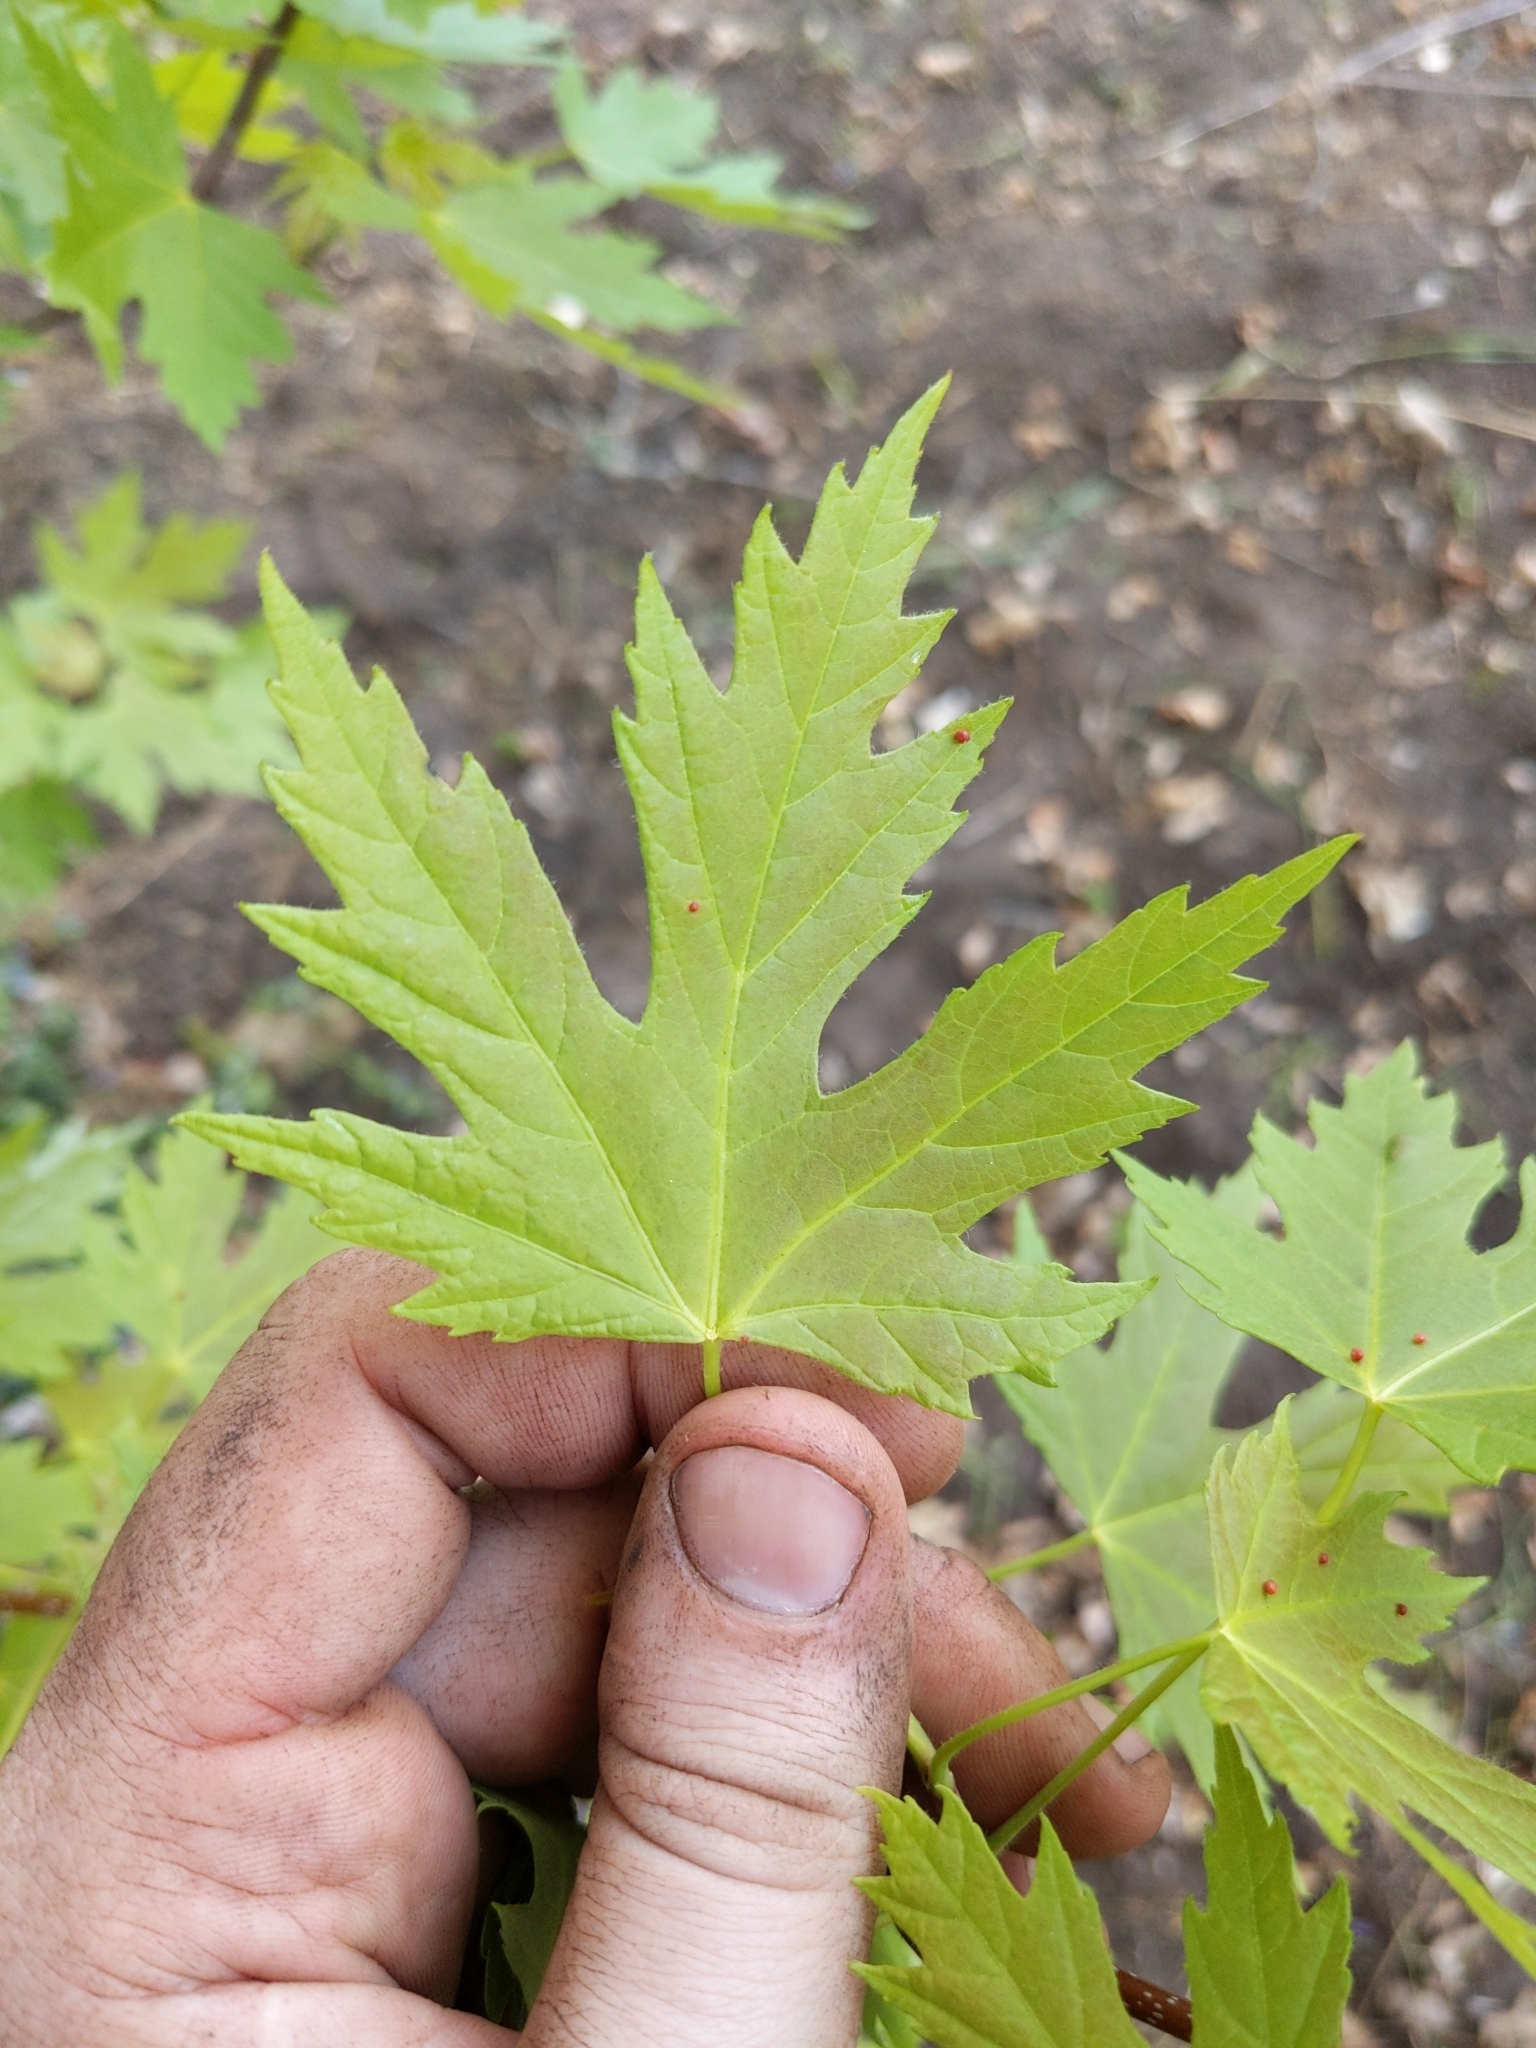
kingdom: Plantae
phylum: Tracheophyta
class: Magnoliopsida
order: Sapindales
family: Sapindaceae
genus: Acer
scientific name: Acer saccharinum
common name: Silver maple
